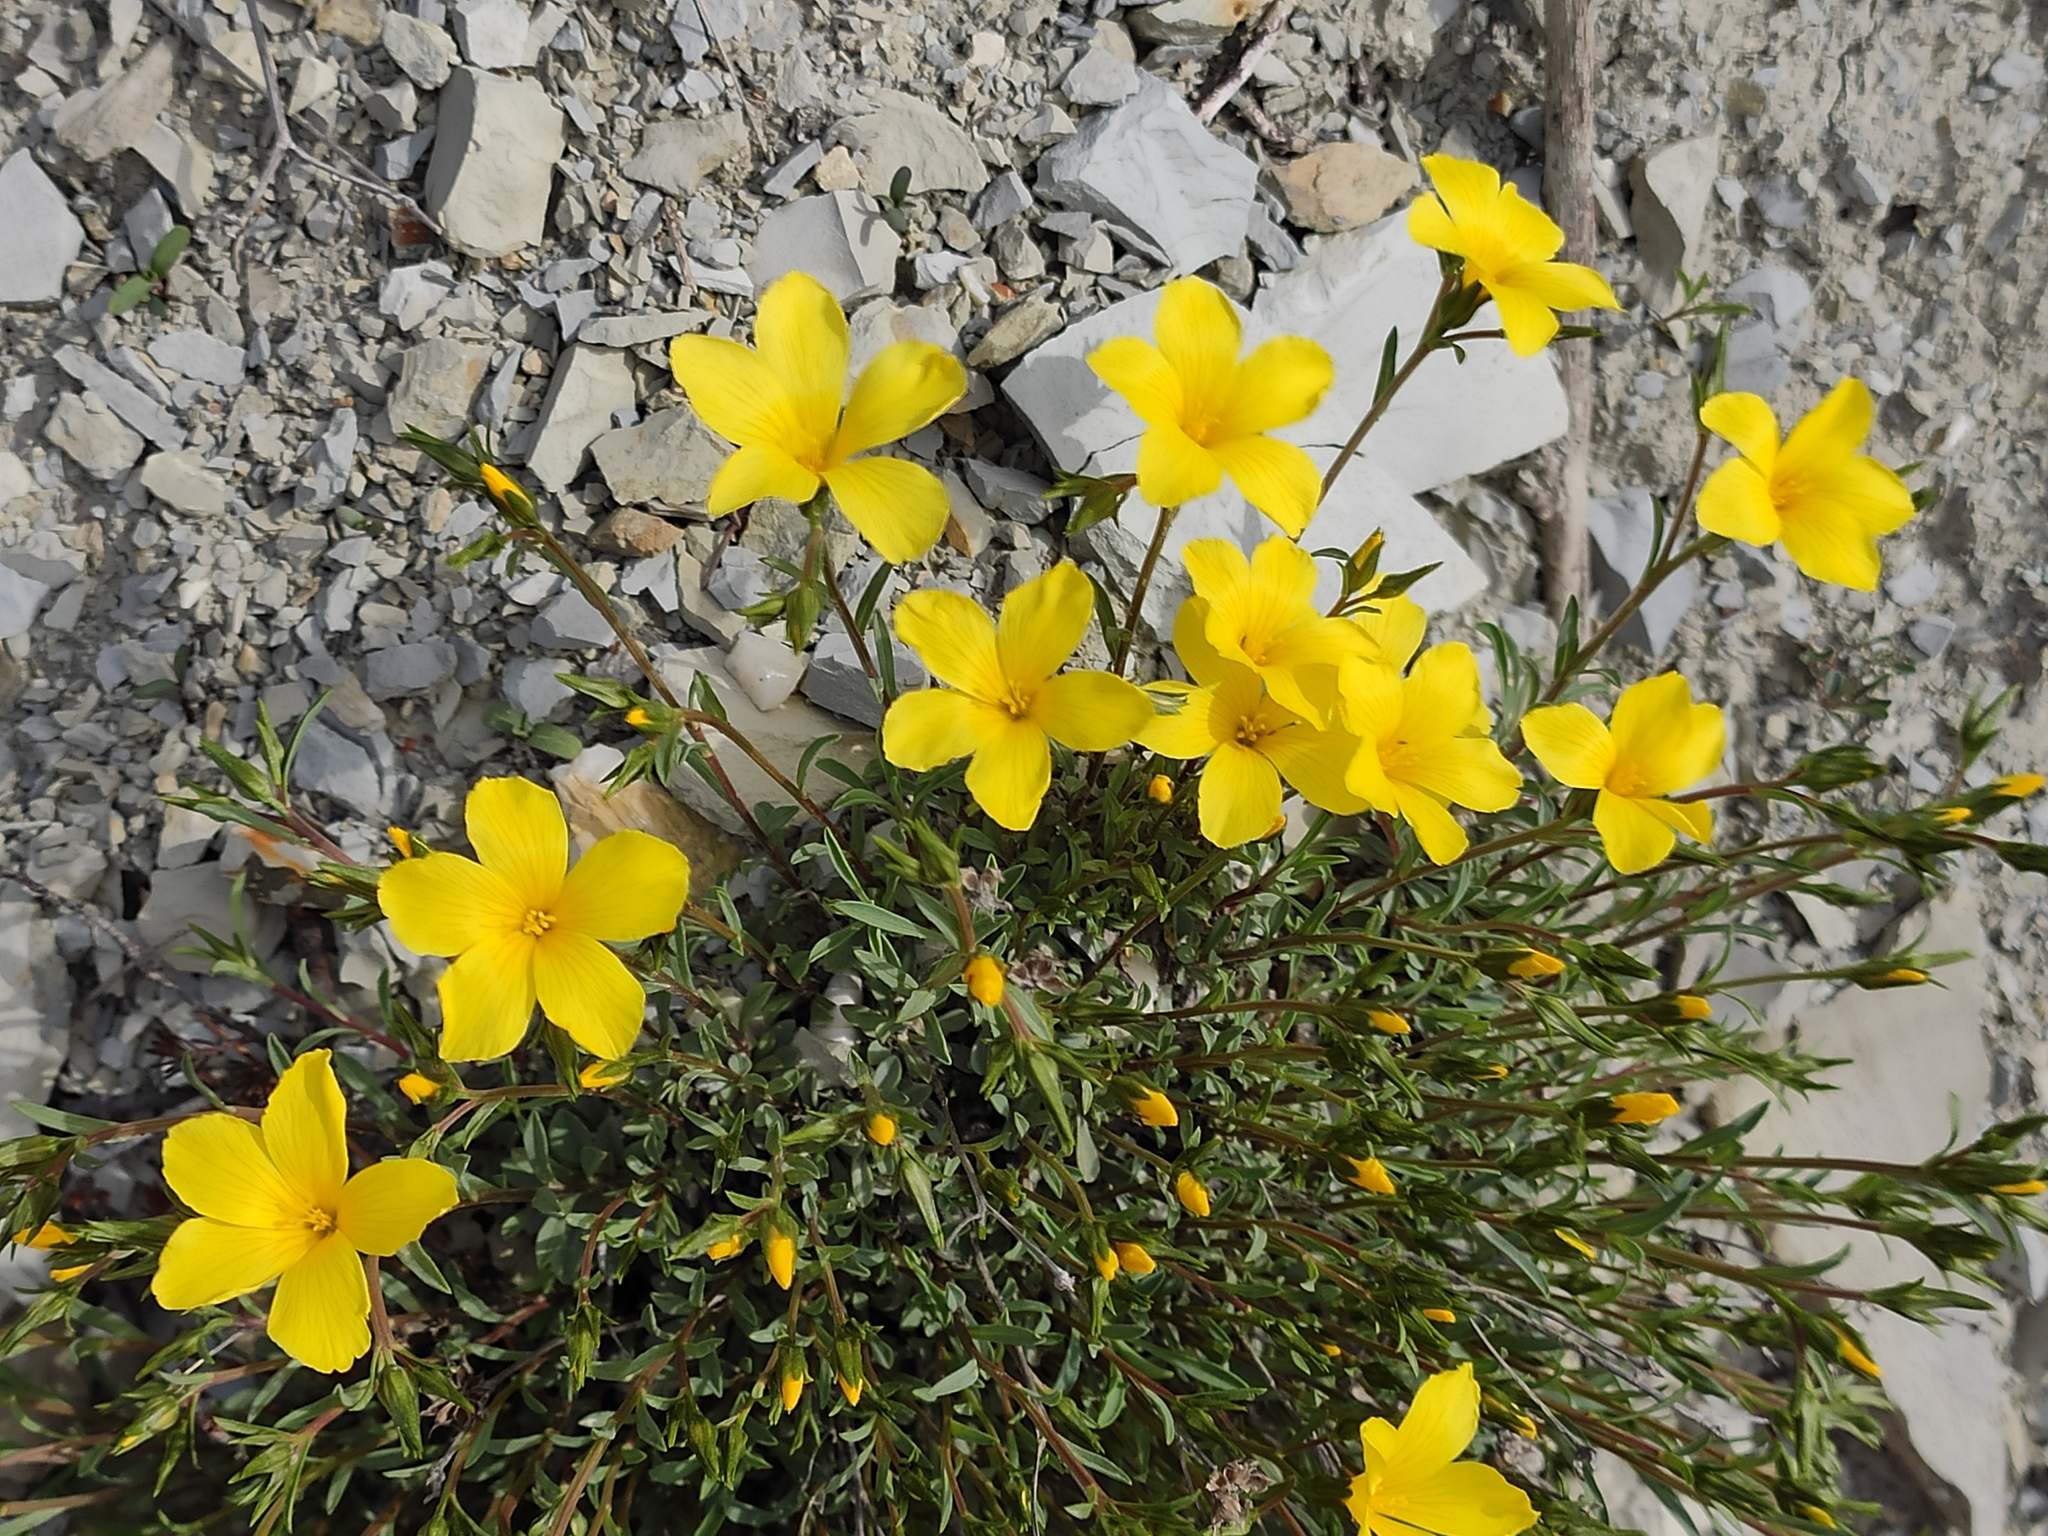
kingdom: Plantae
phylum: Tracheophyta
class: Magnoliopsida
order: Malpighiales
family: Linaceae
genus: Linum
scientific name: Linum tauricum
